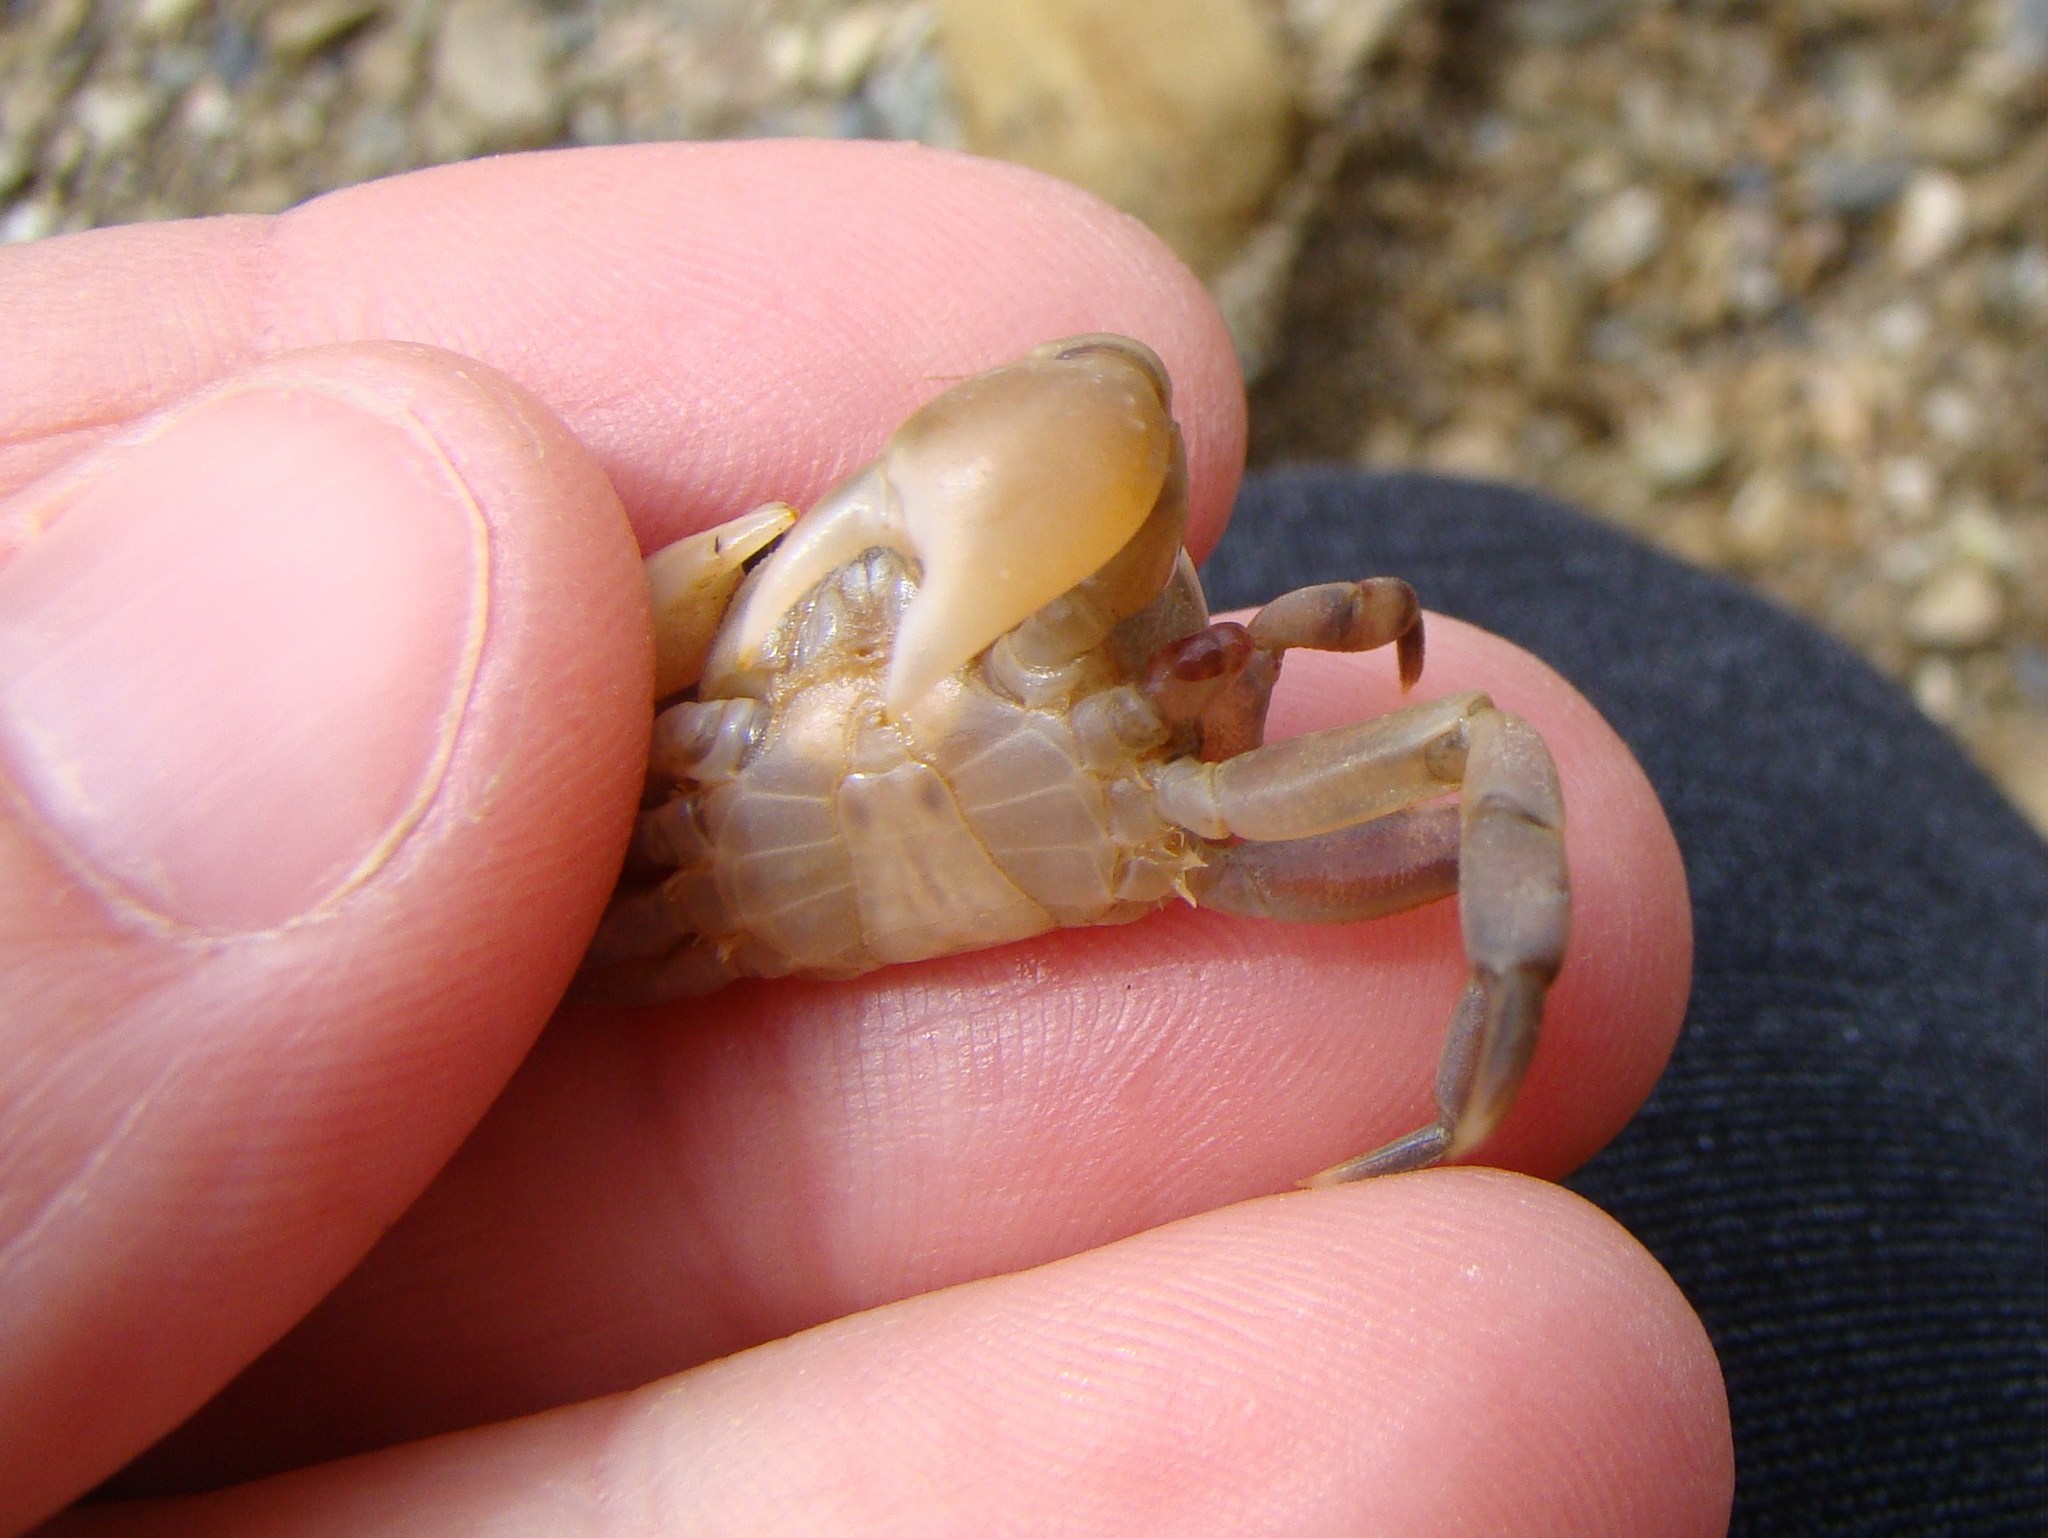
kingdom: Animalia
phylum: Arthropoda
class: Malacostraca
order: Decapoda
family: Varunidae
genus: Cyclograpsus
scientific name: Cyclograpsus lavauxi
